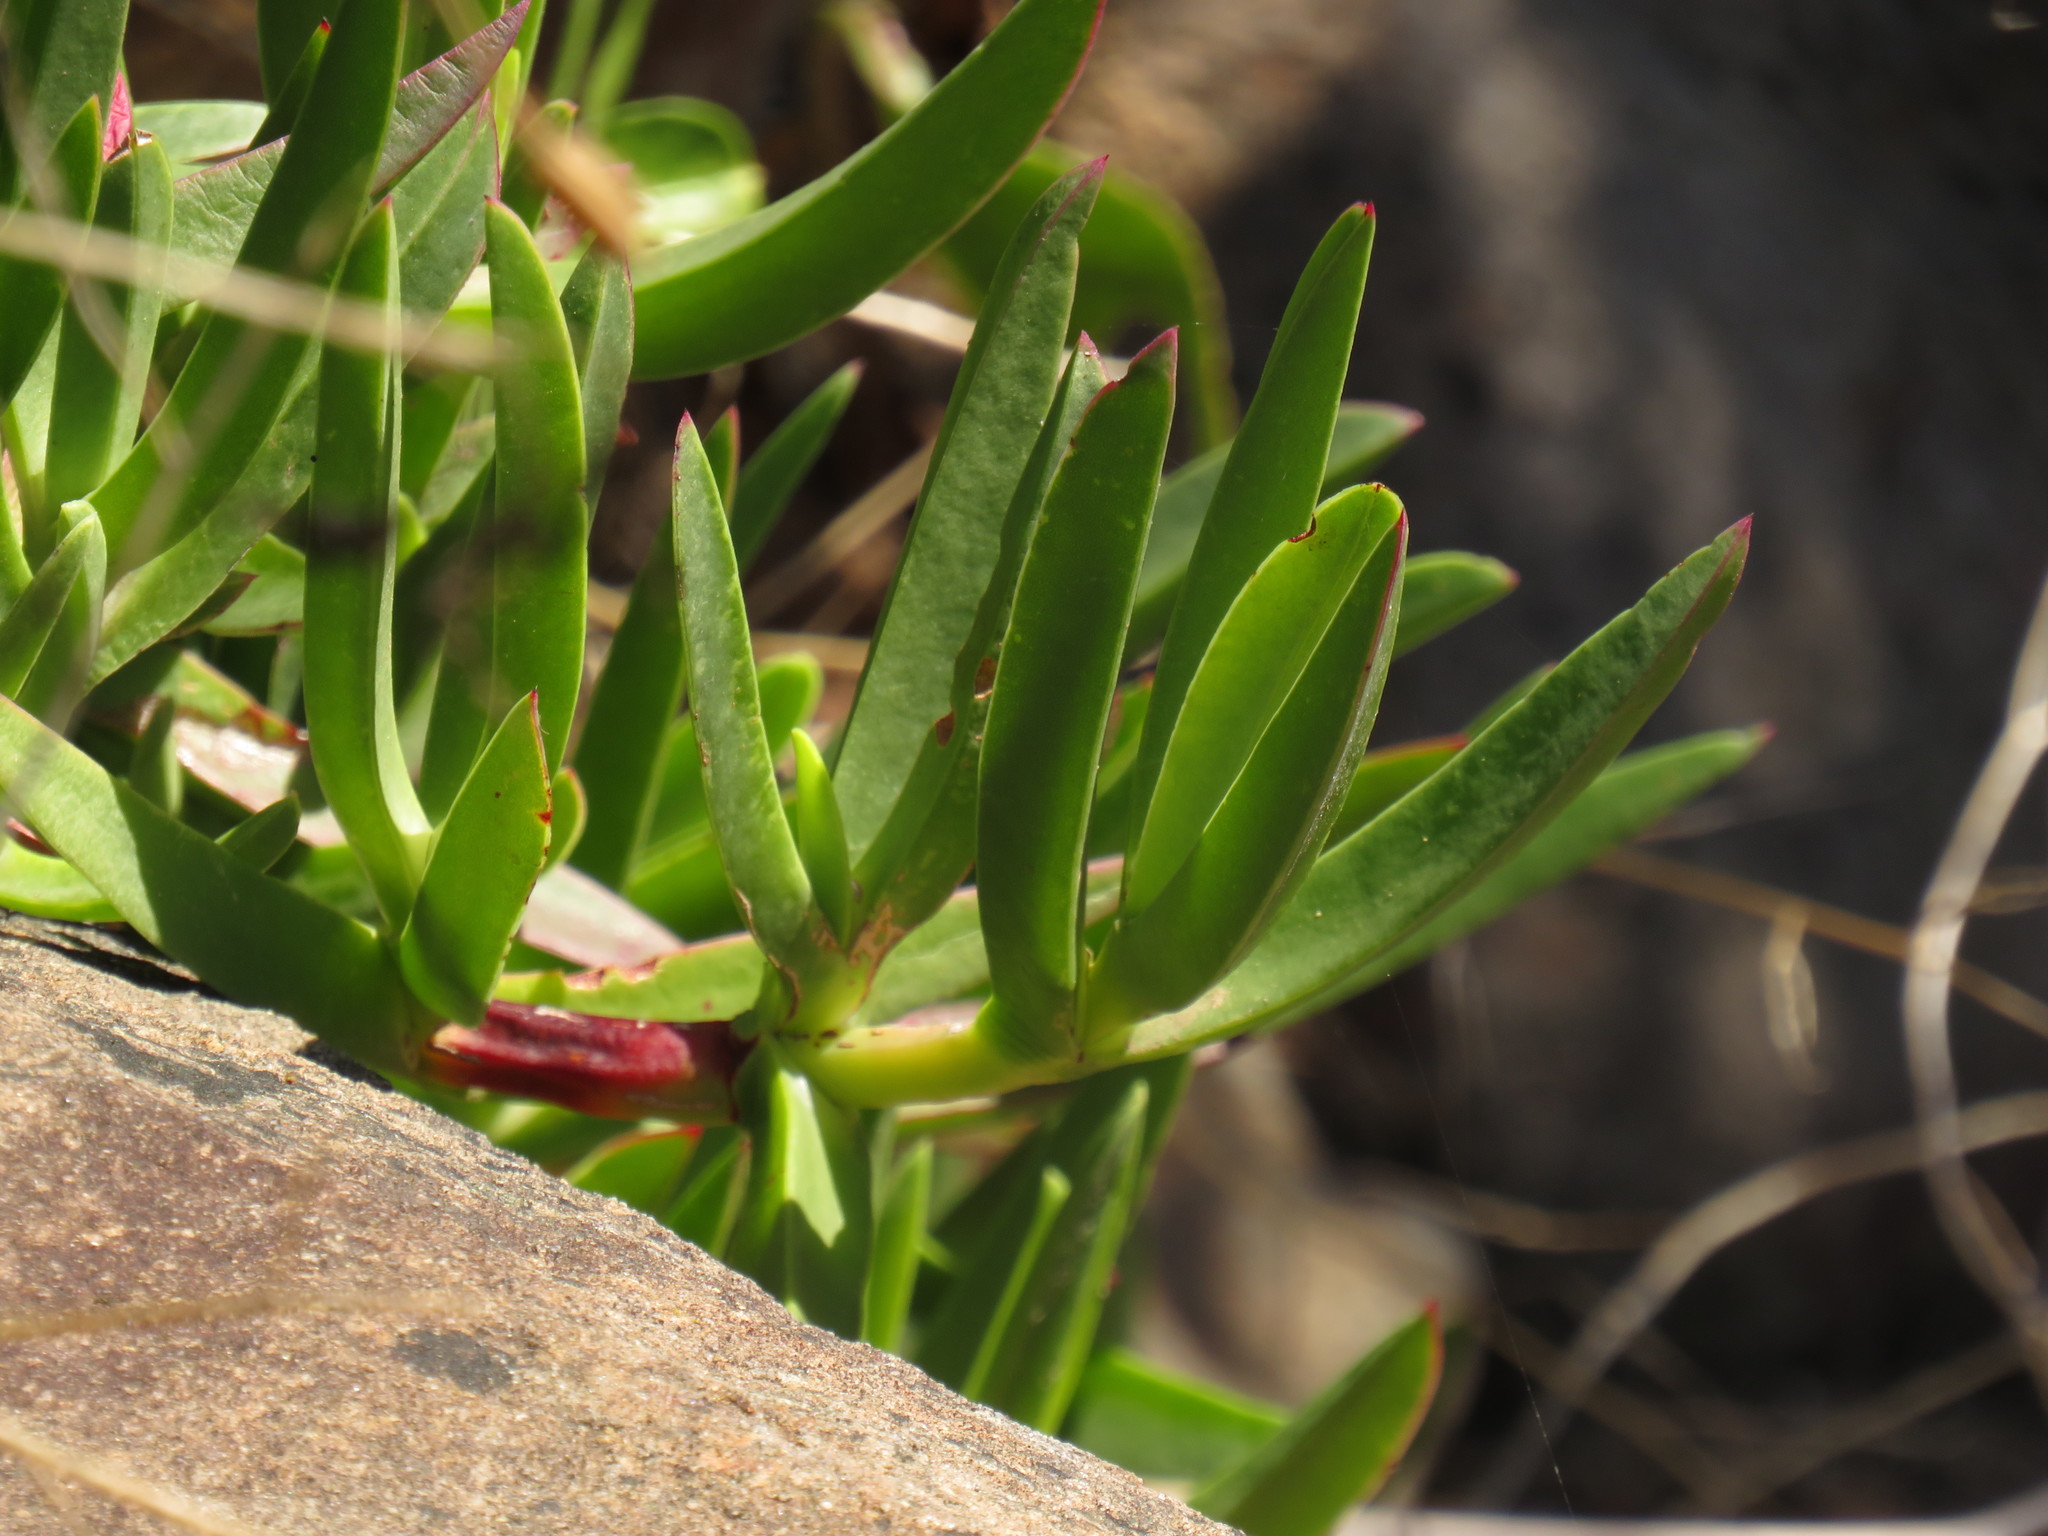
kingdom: Plantae
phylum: Tracheophyta
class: Magnoliopsida
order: Caryophyllales
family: Aizoaceae
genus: Carpobrotus
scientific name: Carpobrotus edulis
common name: Hottentot-fig
